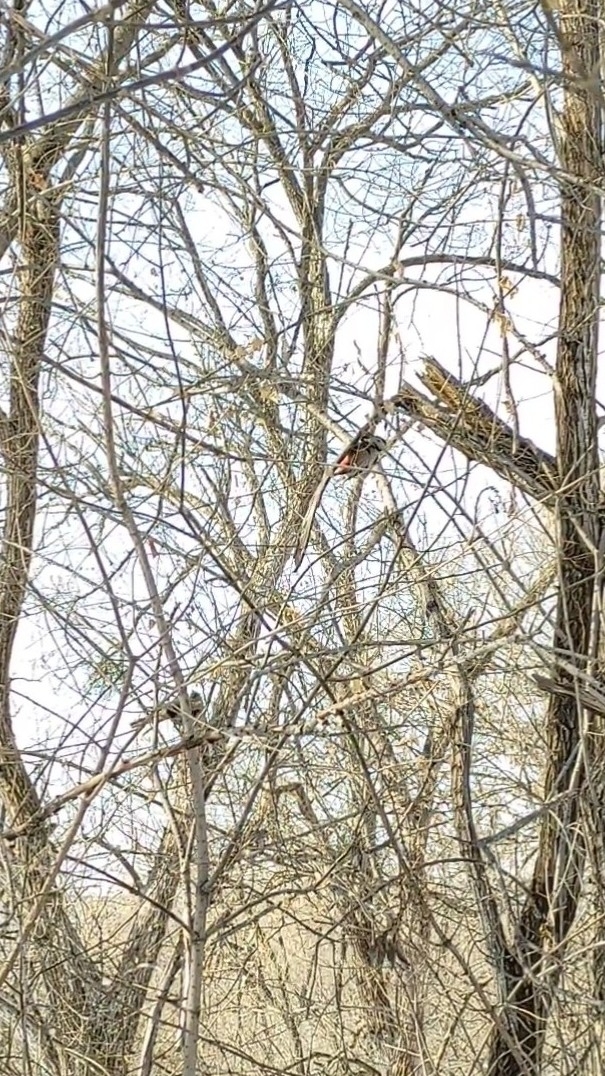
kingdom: Animalia
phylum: Chordata
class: Aves
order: Piciformes
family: Picidae
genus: Dendrocopos
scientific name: Dendrocopos leucotos
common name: White-backed woodpecker
